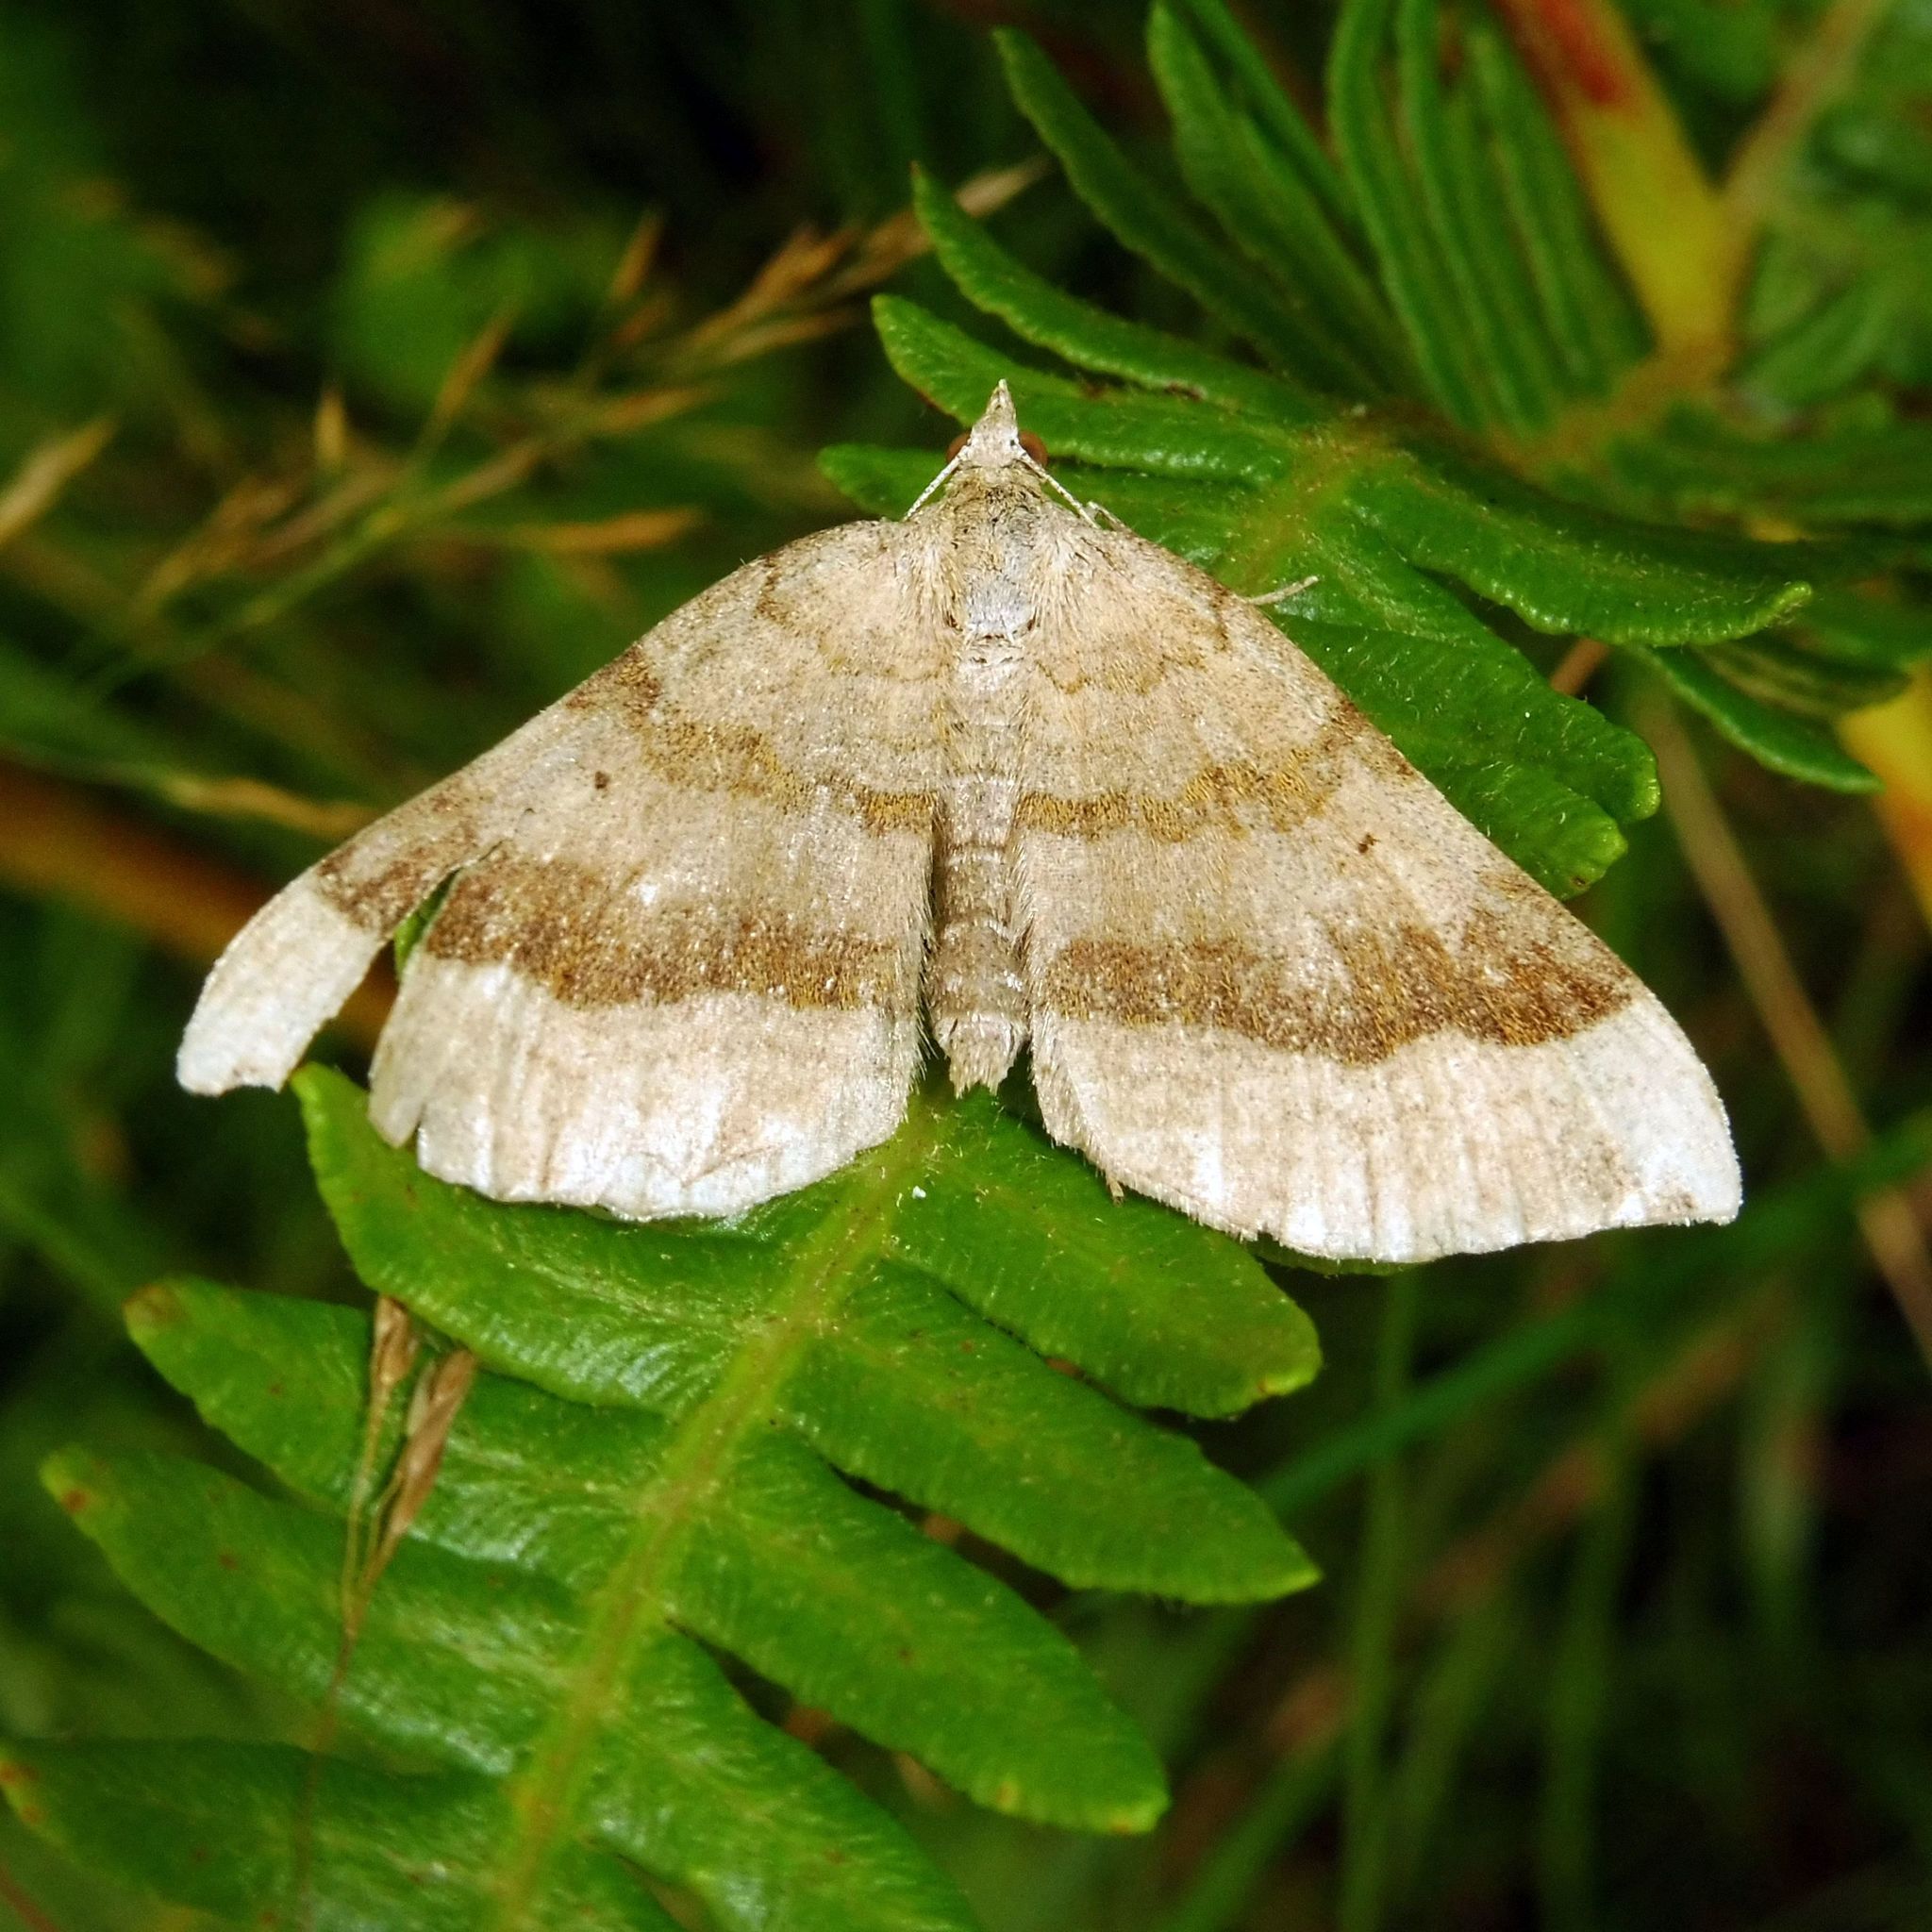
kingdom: Animalia
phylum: Arthropoda
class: Insecta
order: Lepidoptera
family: Geometridae
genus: Scotopteryx
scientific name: Scotopteryx chenopodiata
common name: Shaded broad-bar
